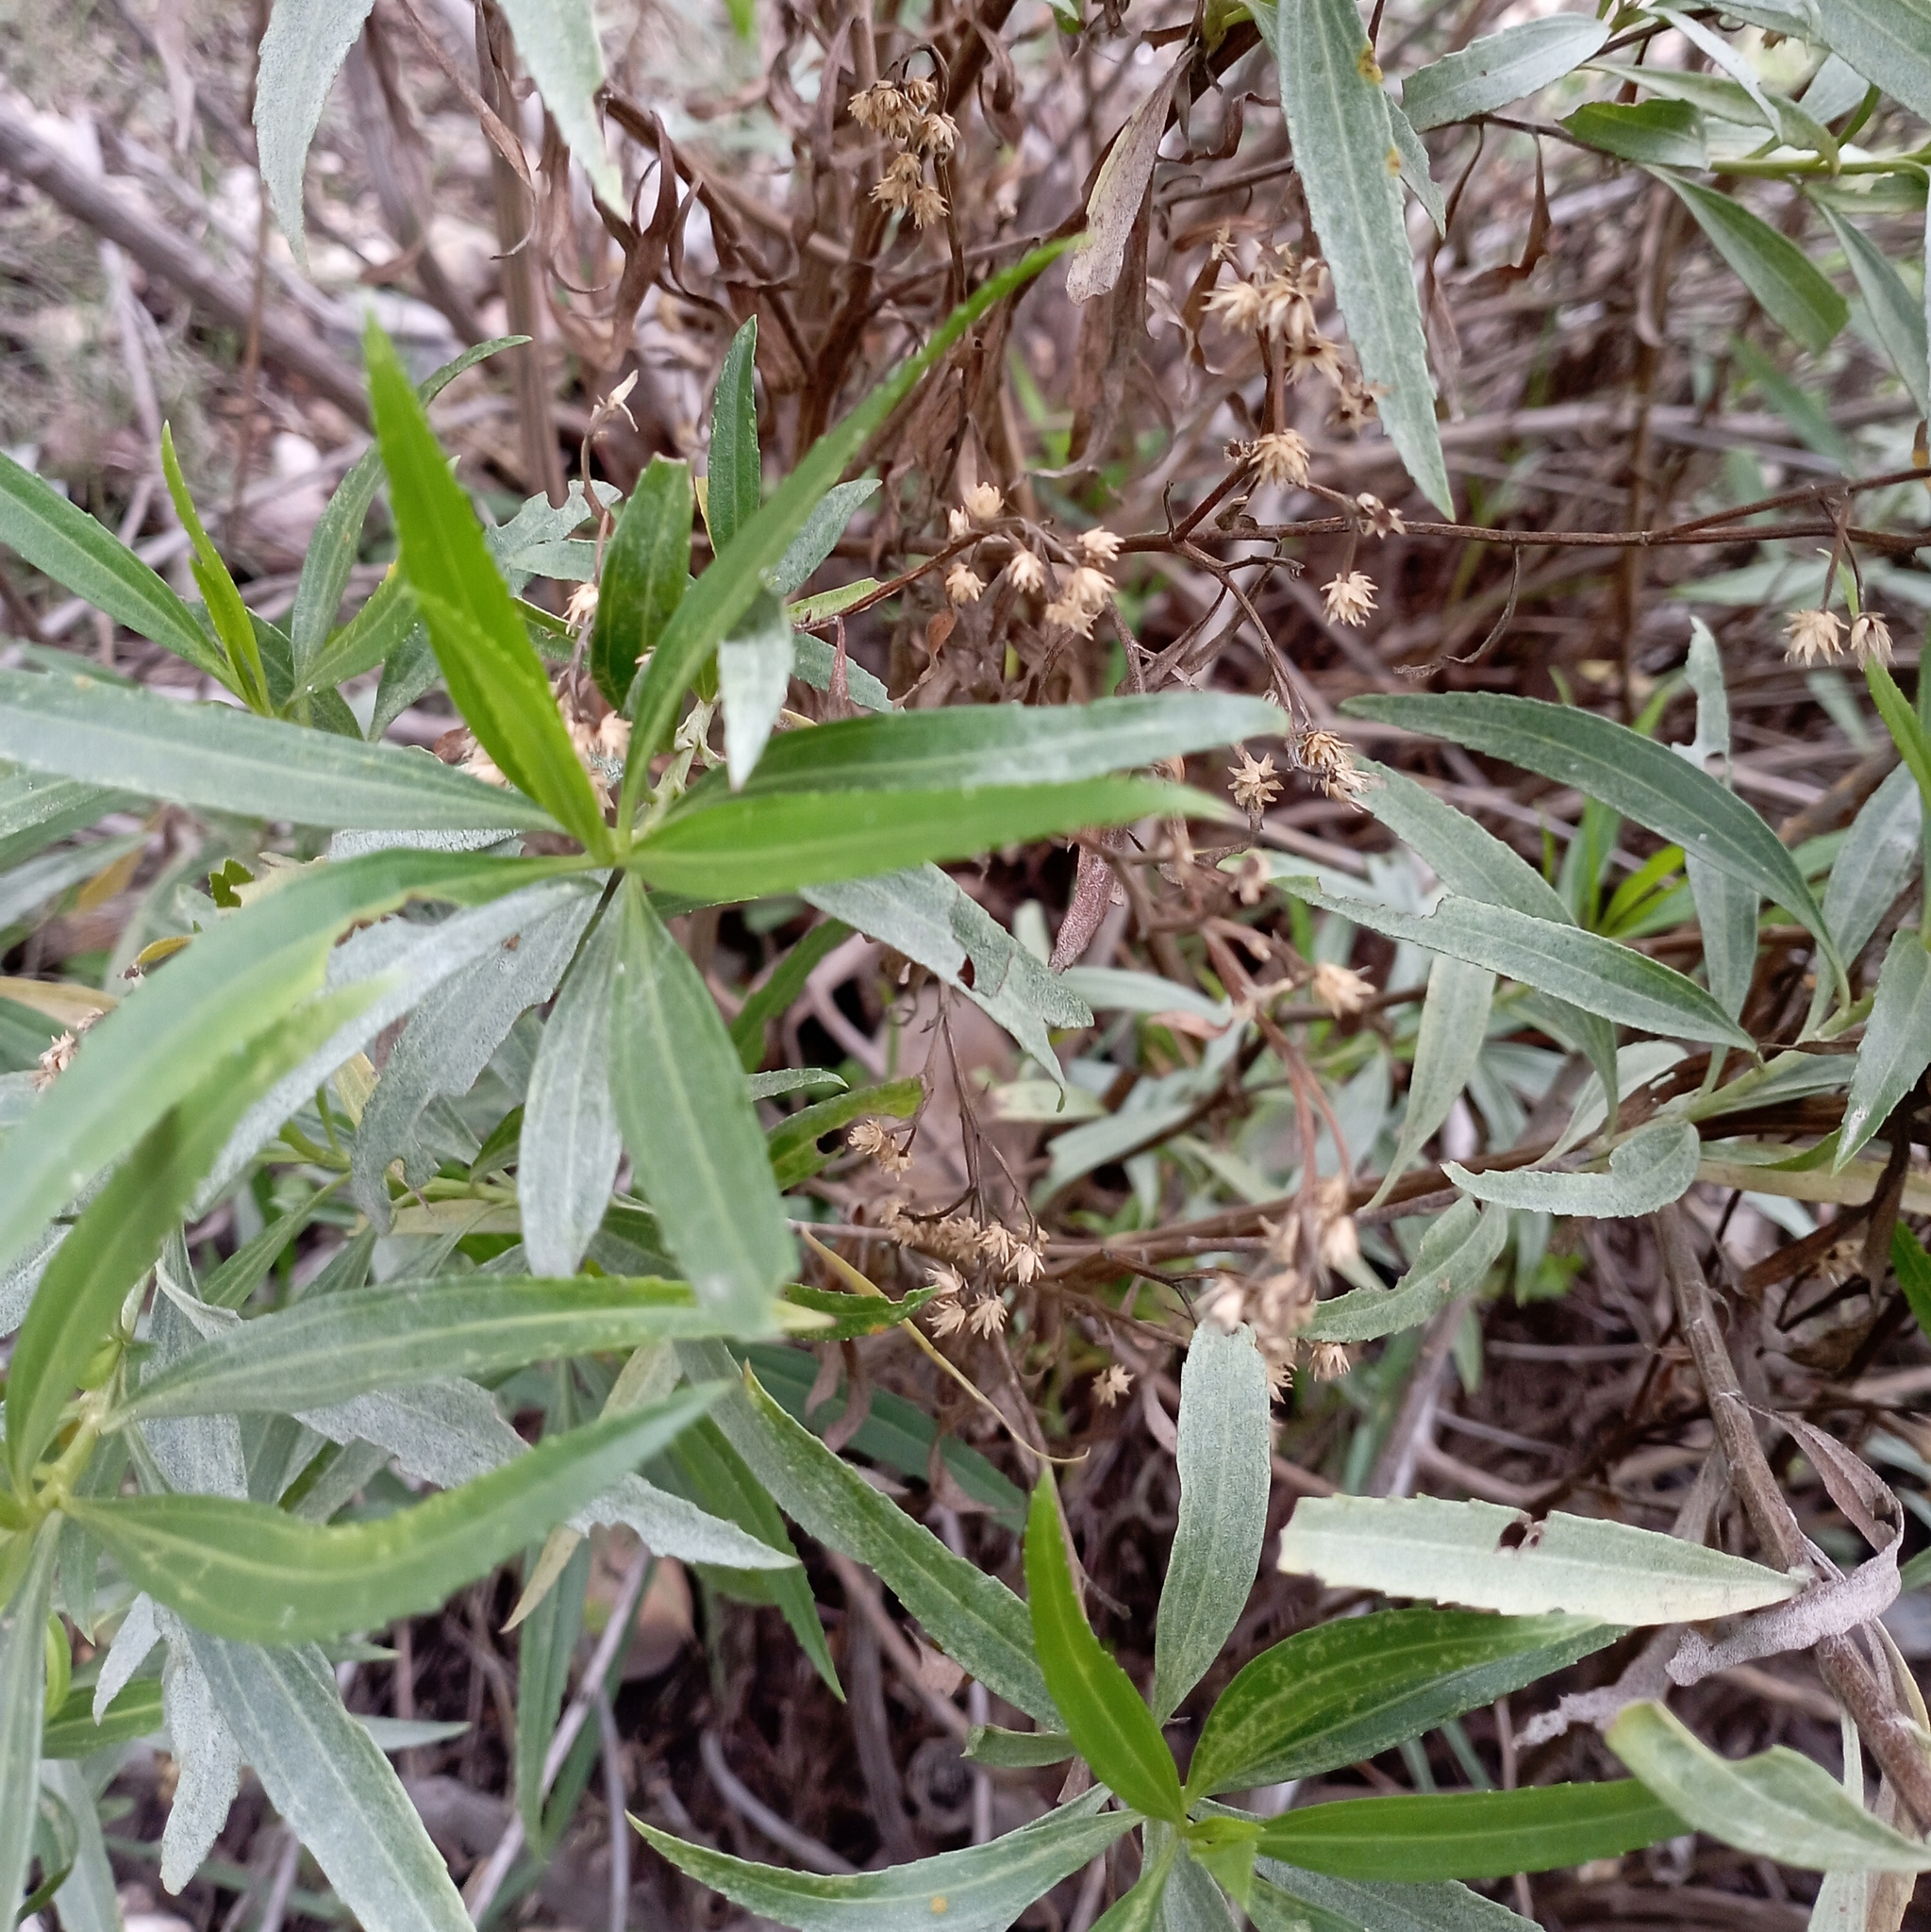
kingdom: Plantae
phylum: Tracheophyta
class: Magnoliopsida
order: Asterales
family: Asteraceae
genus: Barkleyanthus
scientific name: Barkleyanthus salicifolius
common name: Willow ragwort
